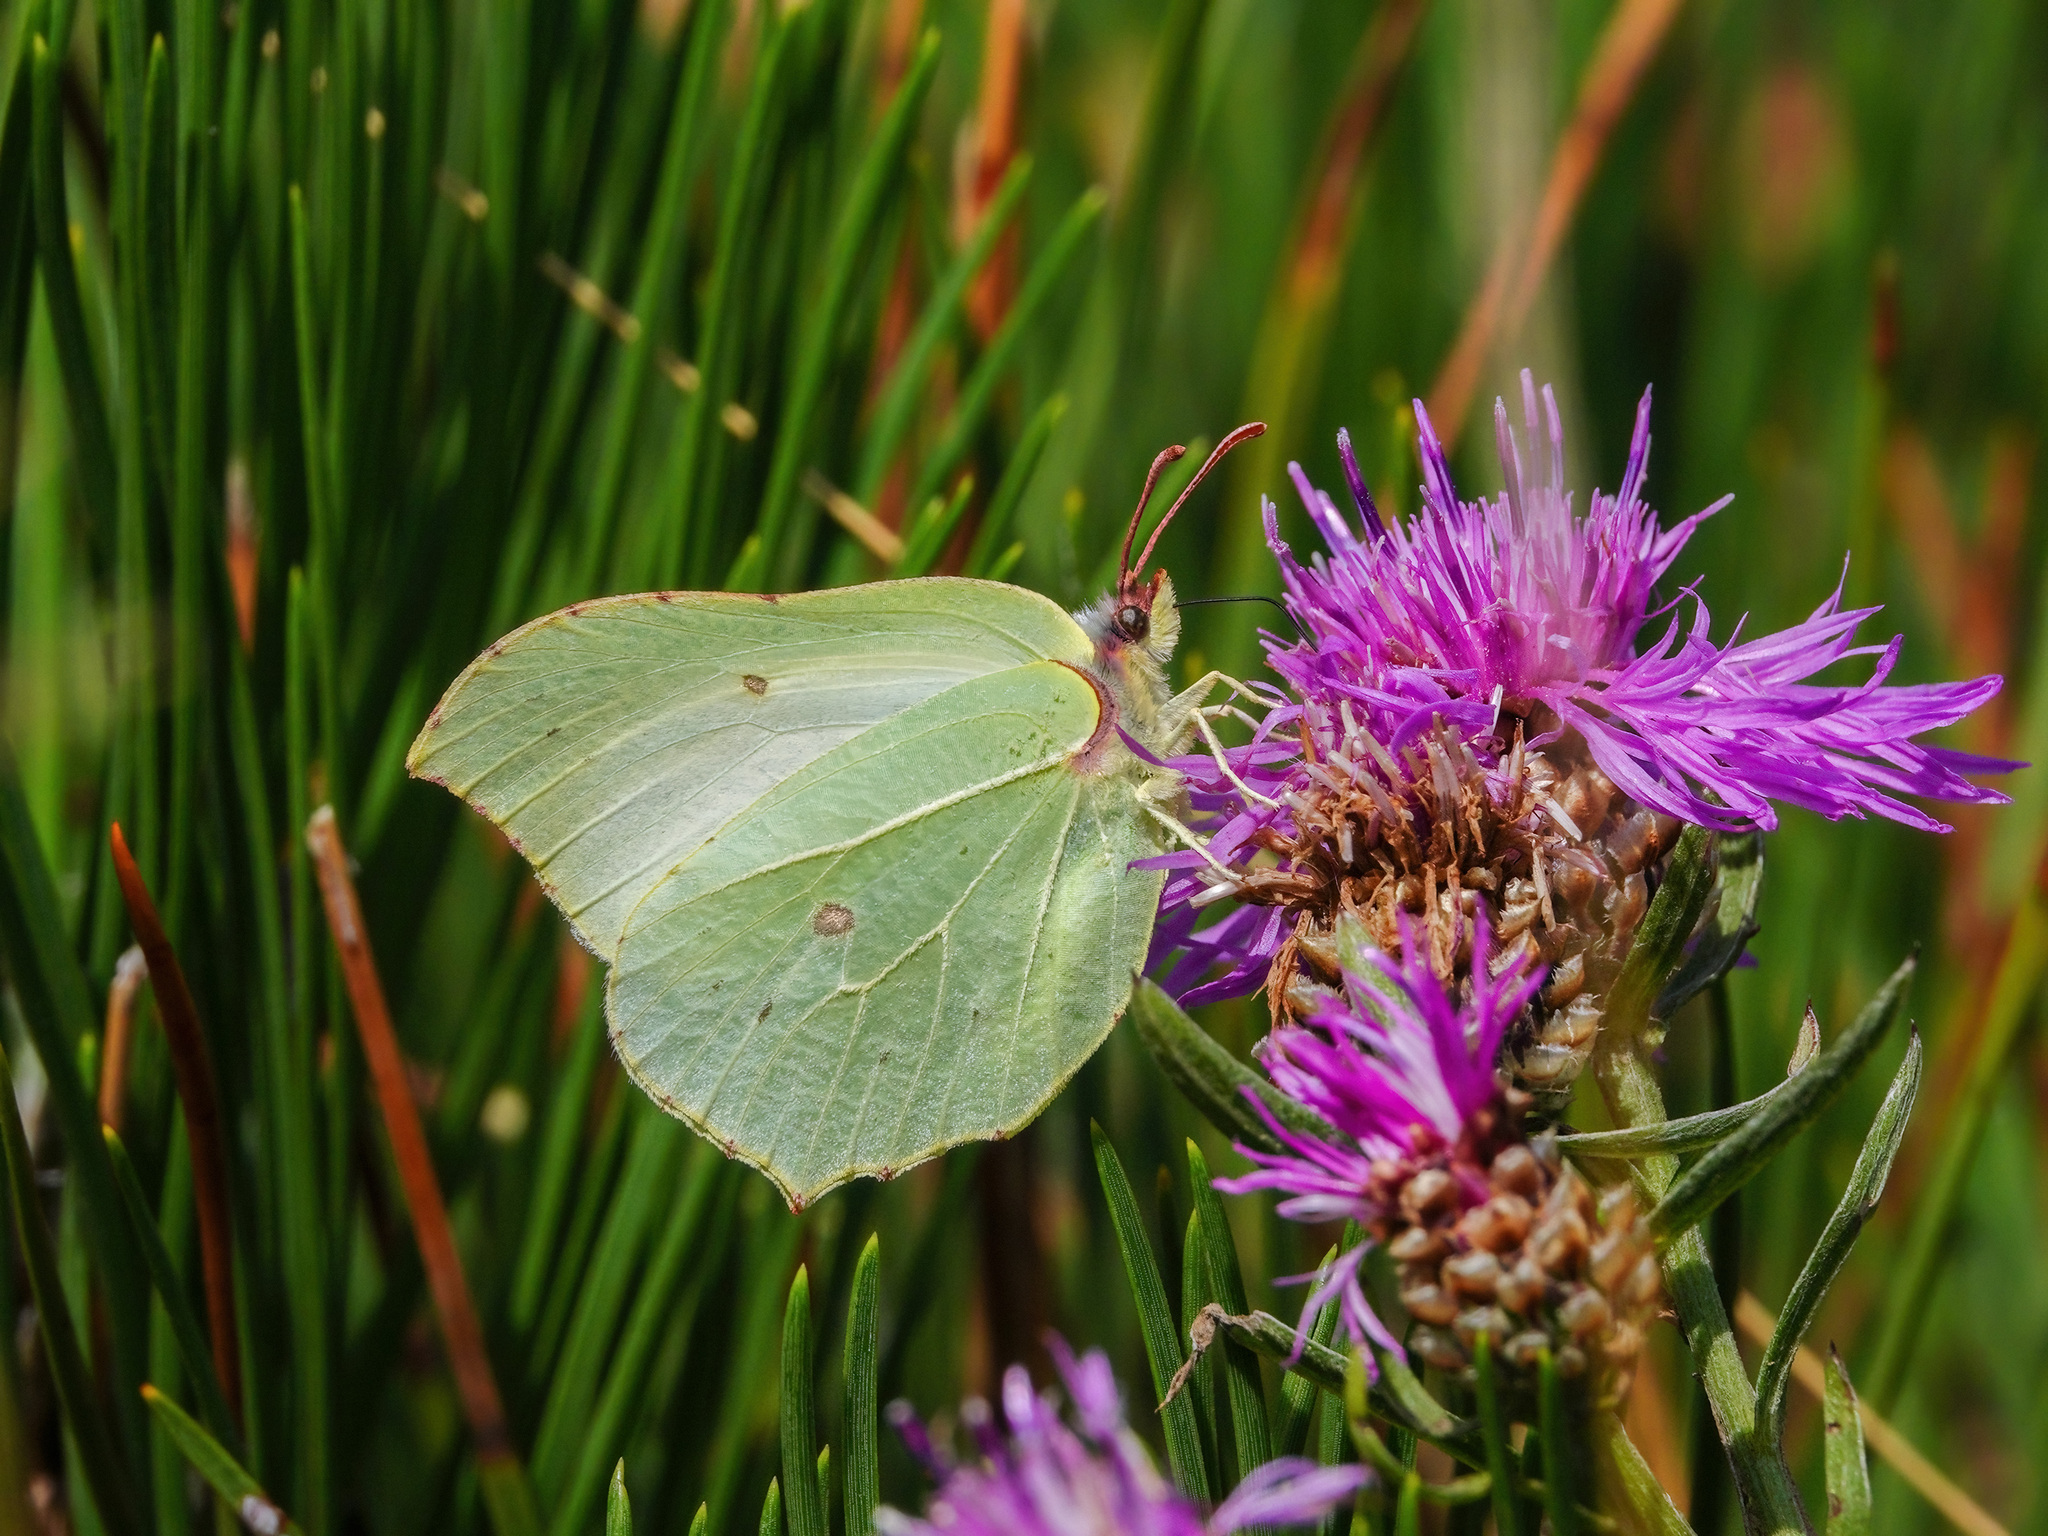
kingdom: Animalia
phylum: Arthropoda
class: Insecta
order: Lepidoptera
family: Pieridae
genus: Gonepteryx
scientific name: Gonepteryx rhamni
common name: Brimstone
